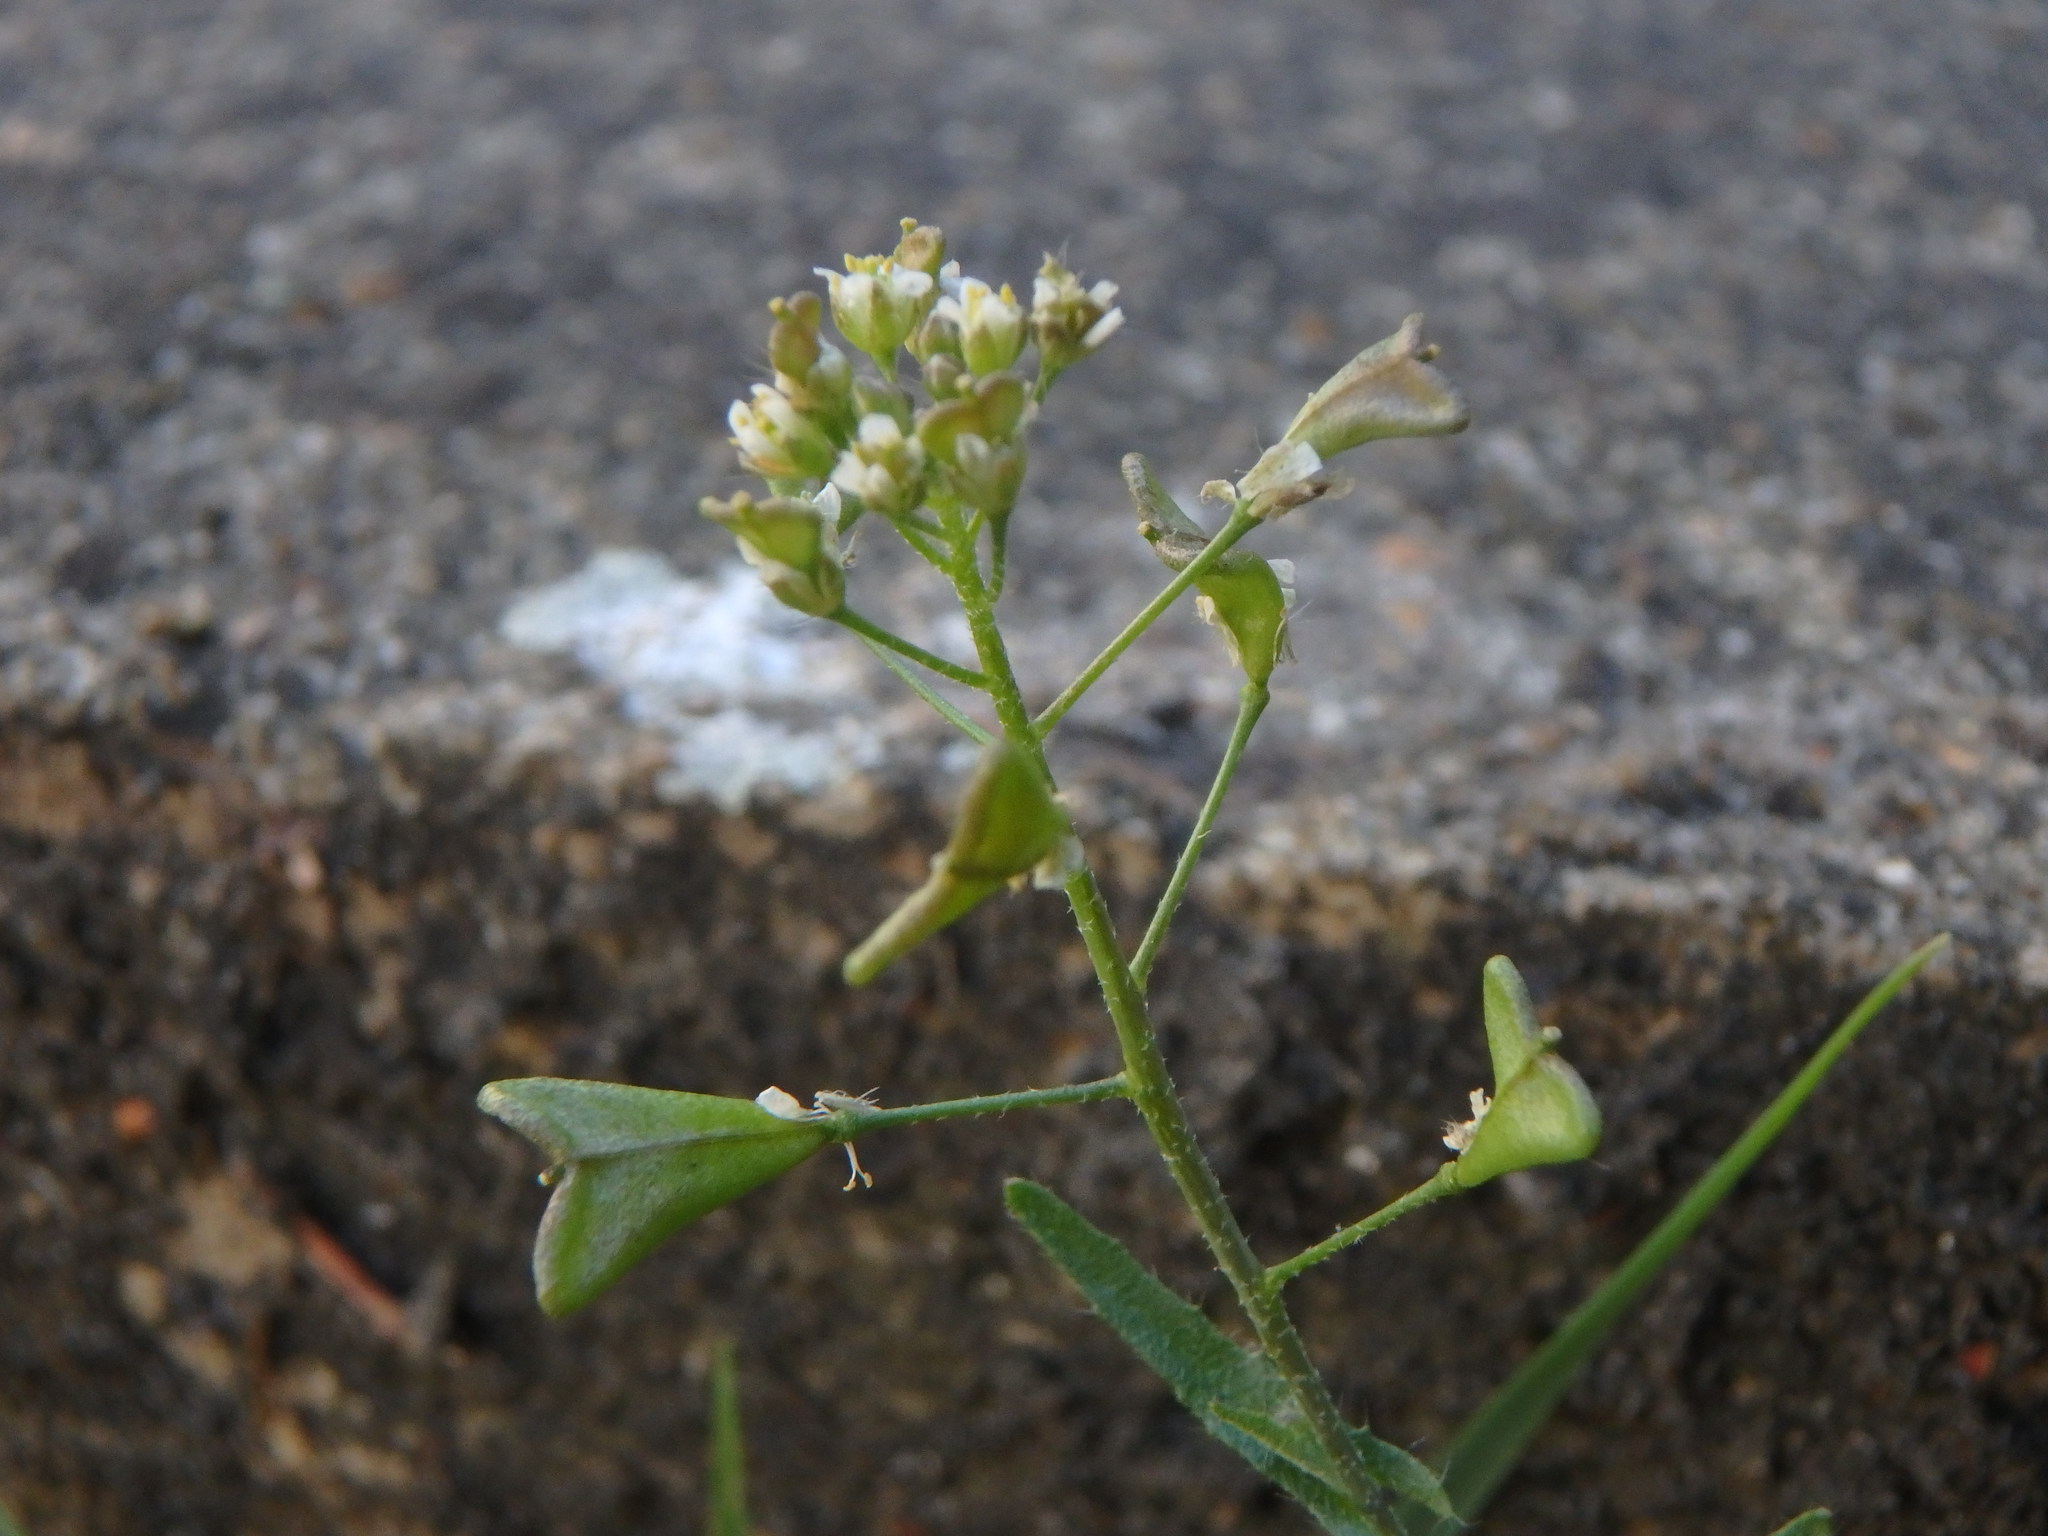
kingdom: Plantae
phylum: Tracheophyta
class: Magnoliopsida
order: Brassicales
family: Brassicaceae
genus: Capsella
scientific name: Capsella bursa-pastoris
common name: Shepherd's purse
